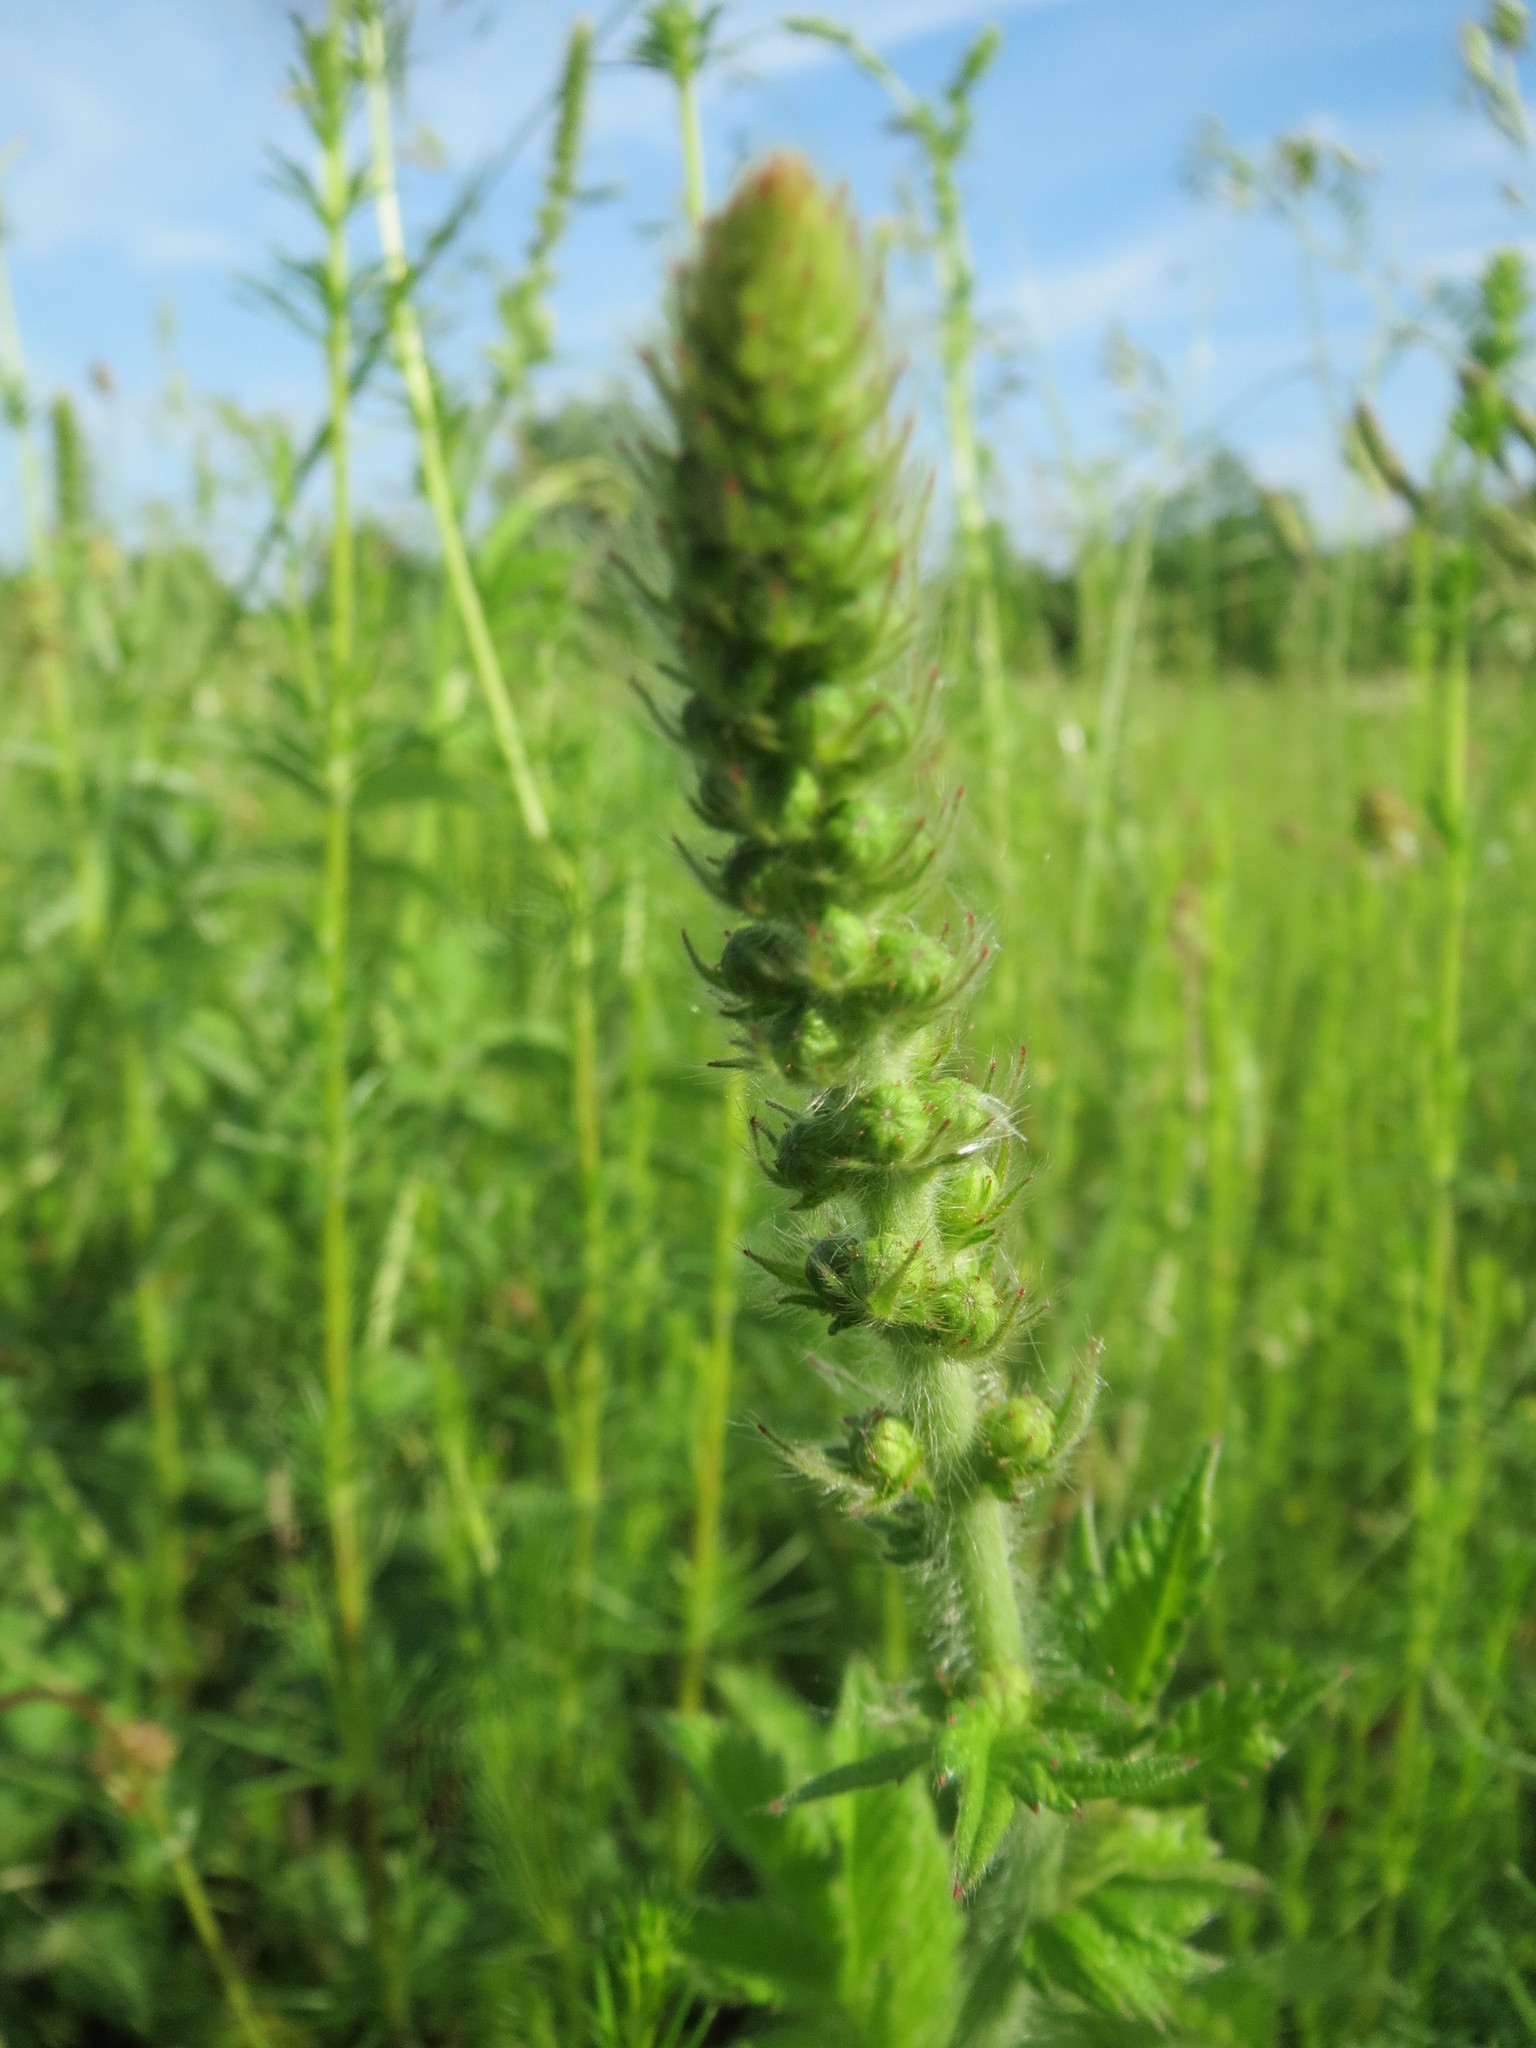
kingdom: Plantae
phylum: Tracheophyta
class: Magnoliopsida
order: Rosales
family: Rosaceae
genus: Agrimonia
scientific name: Agrimonia eupatoria
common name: Agrimony
